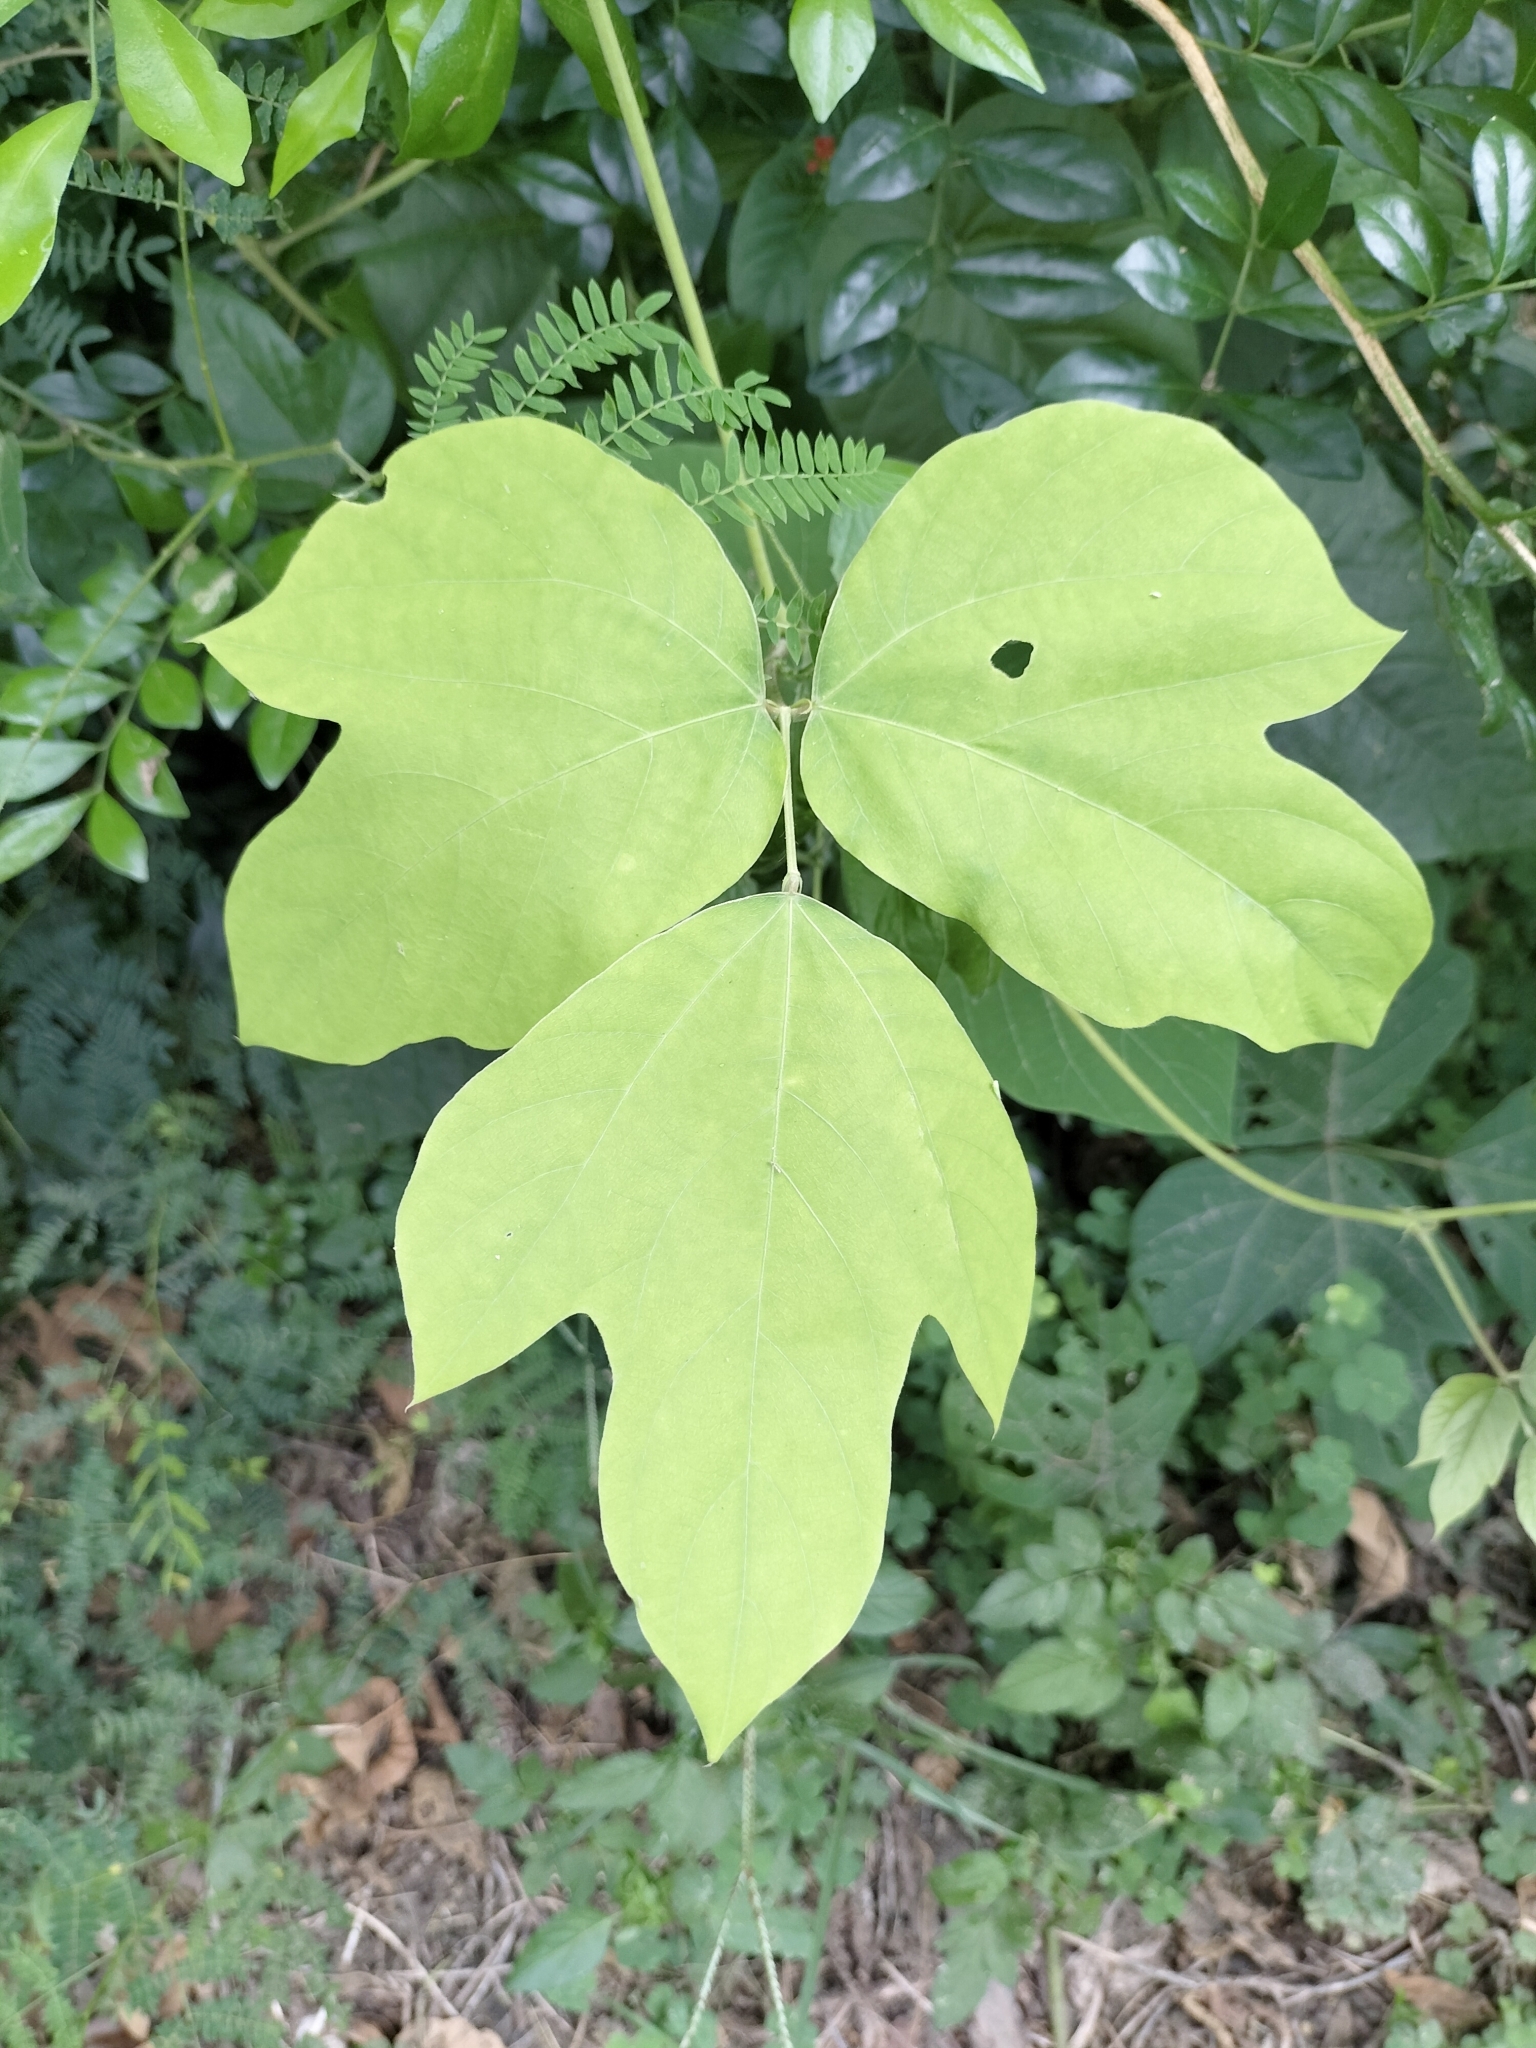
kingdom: Plantae
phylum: Tracheophyta
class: Magnoliopsida
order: Fabales
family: Fabaceae
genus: Pueraria
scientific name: Pueraria montana
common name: Kudzu
